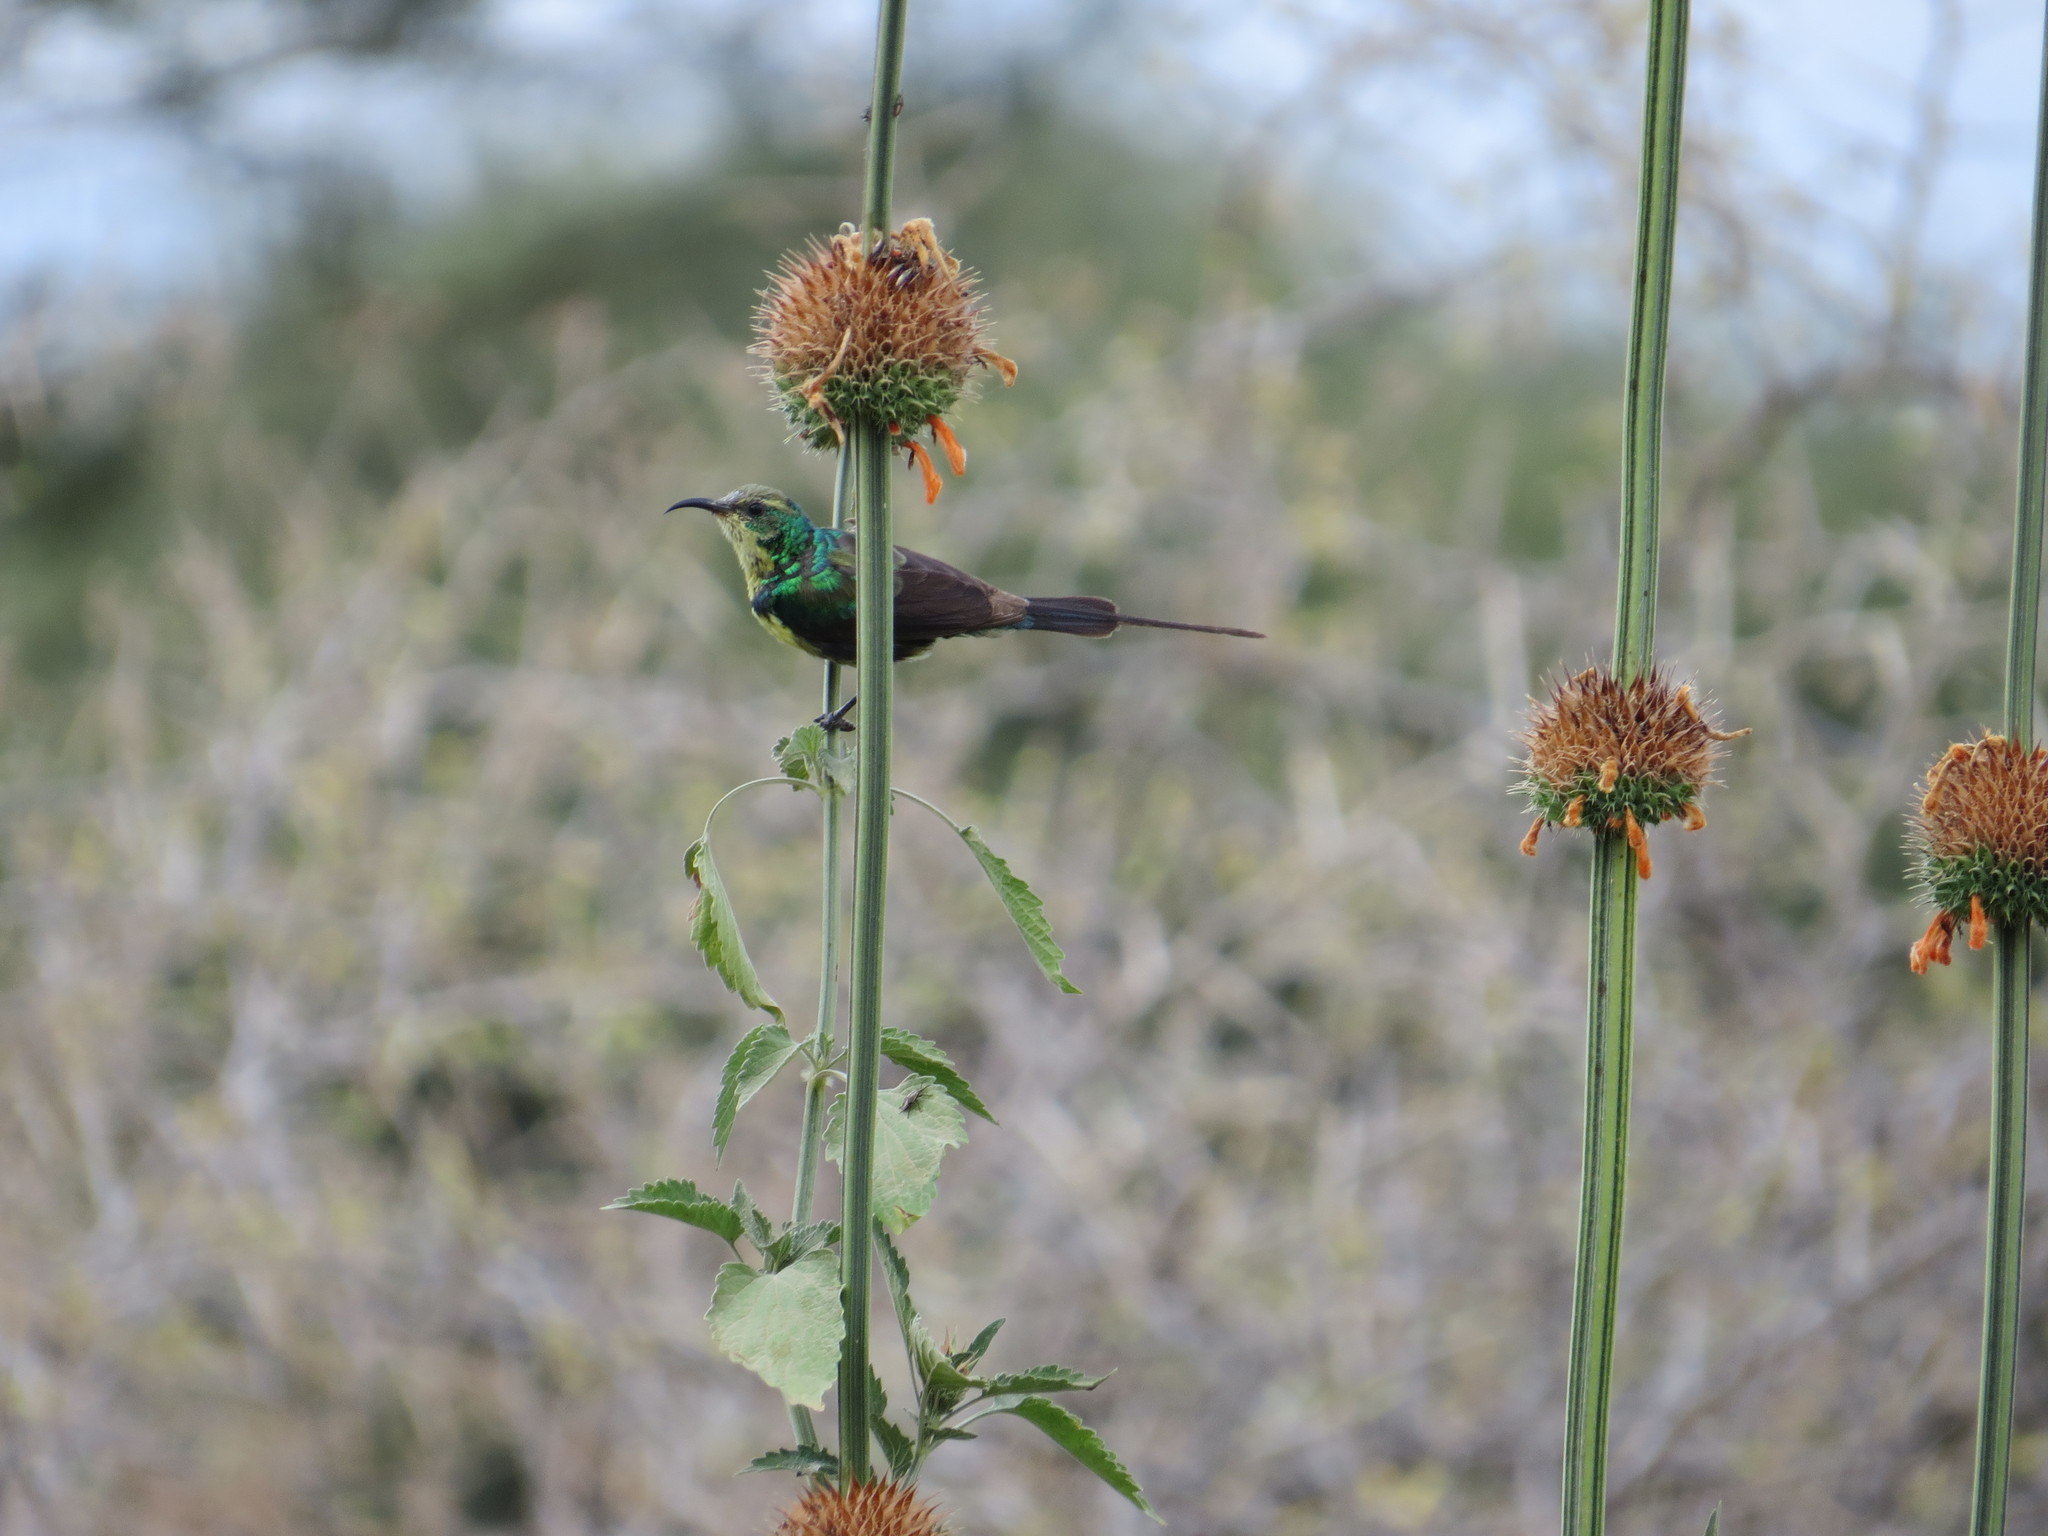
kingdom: Plantae
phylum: Tracheophyta
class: Magnoliopsida
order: Lamiales
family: Lamiaceae
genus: Leonotis
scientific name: Leonotis nepetifolia
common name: Christmas candlestick
